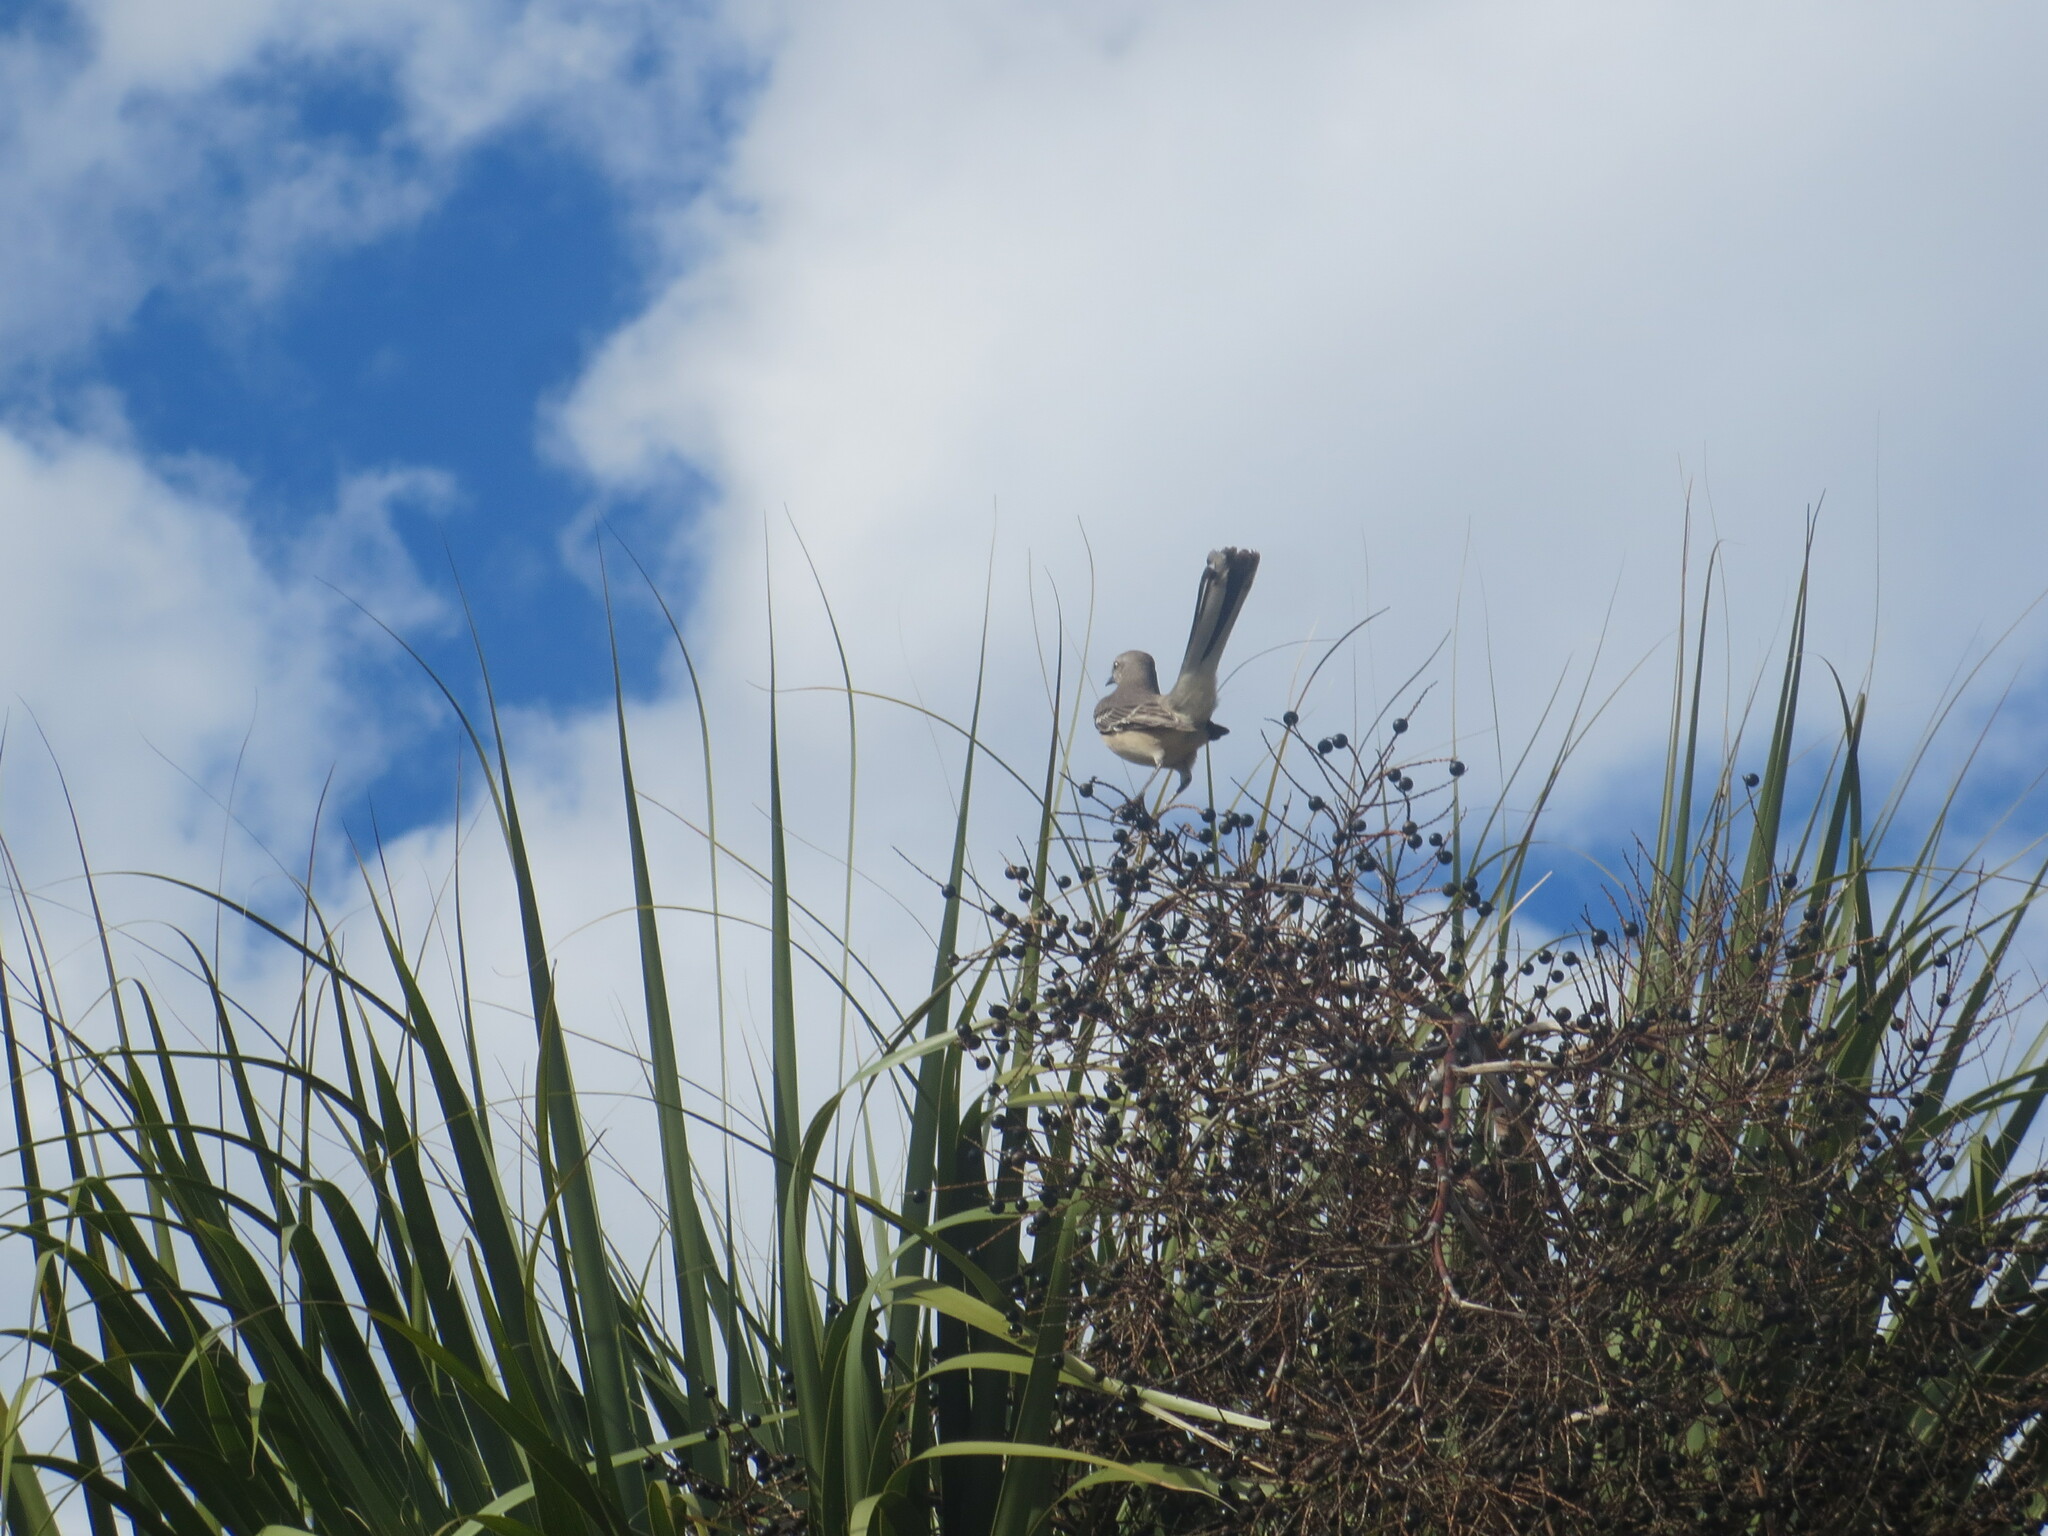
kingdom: Animalia
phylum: Chordata
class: Aves
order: Passeriformes
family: Mimidae
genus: Mimus
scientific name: Mimus polyglottos
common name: Northern mockingbird
